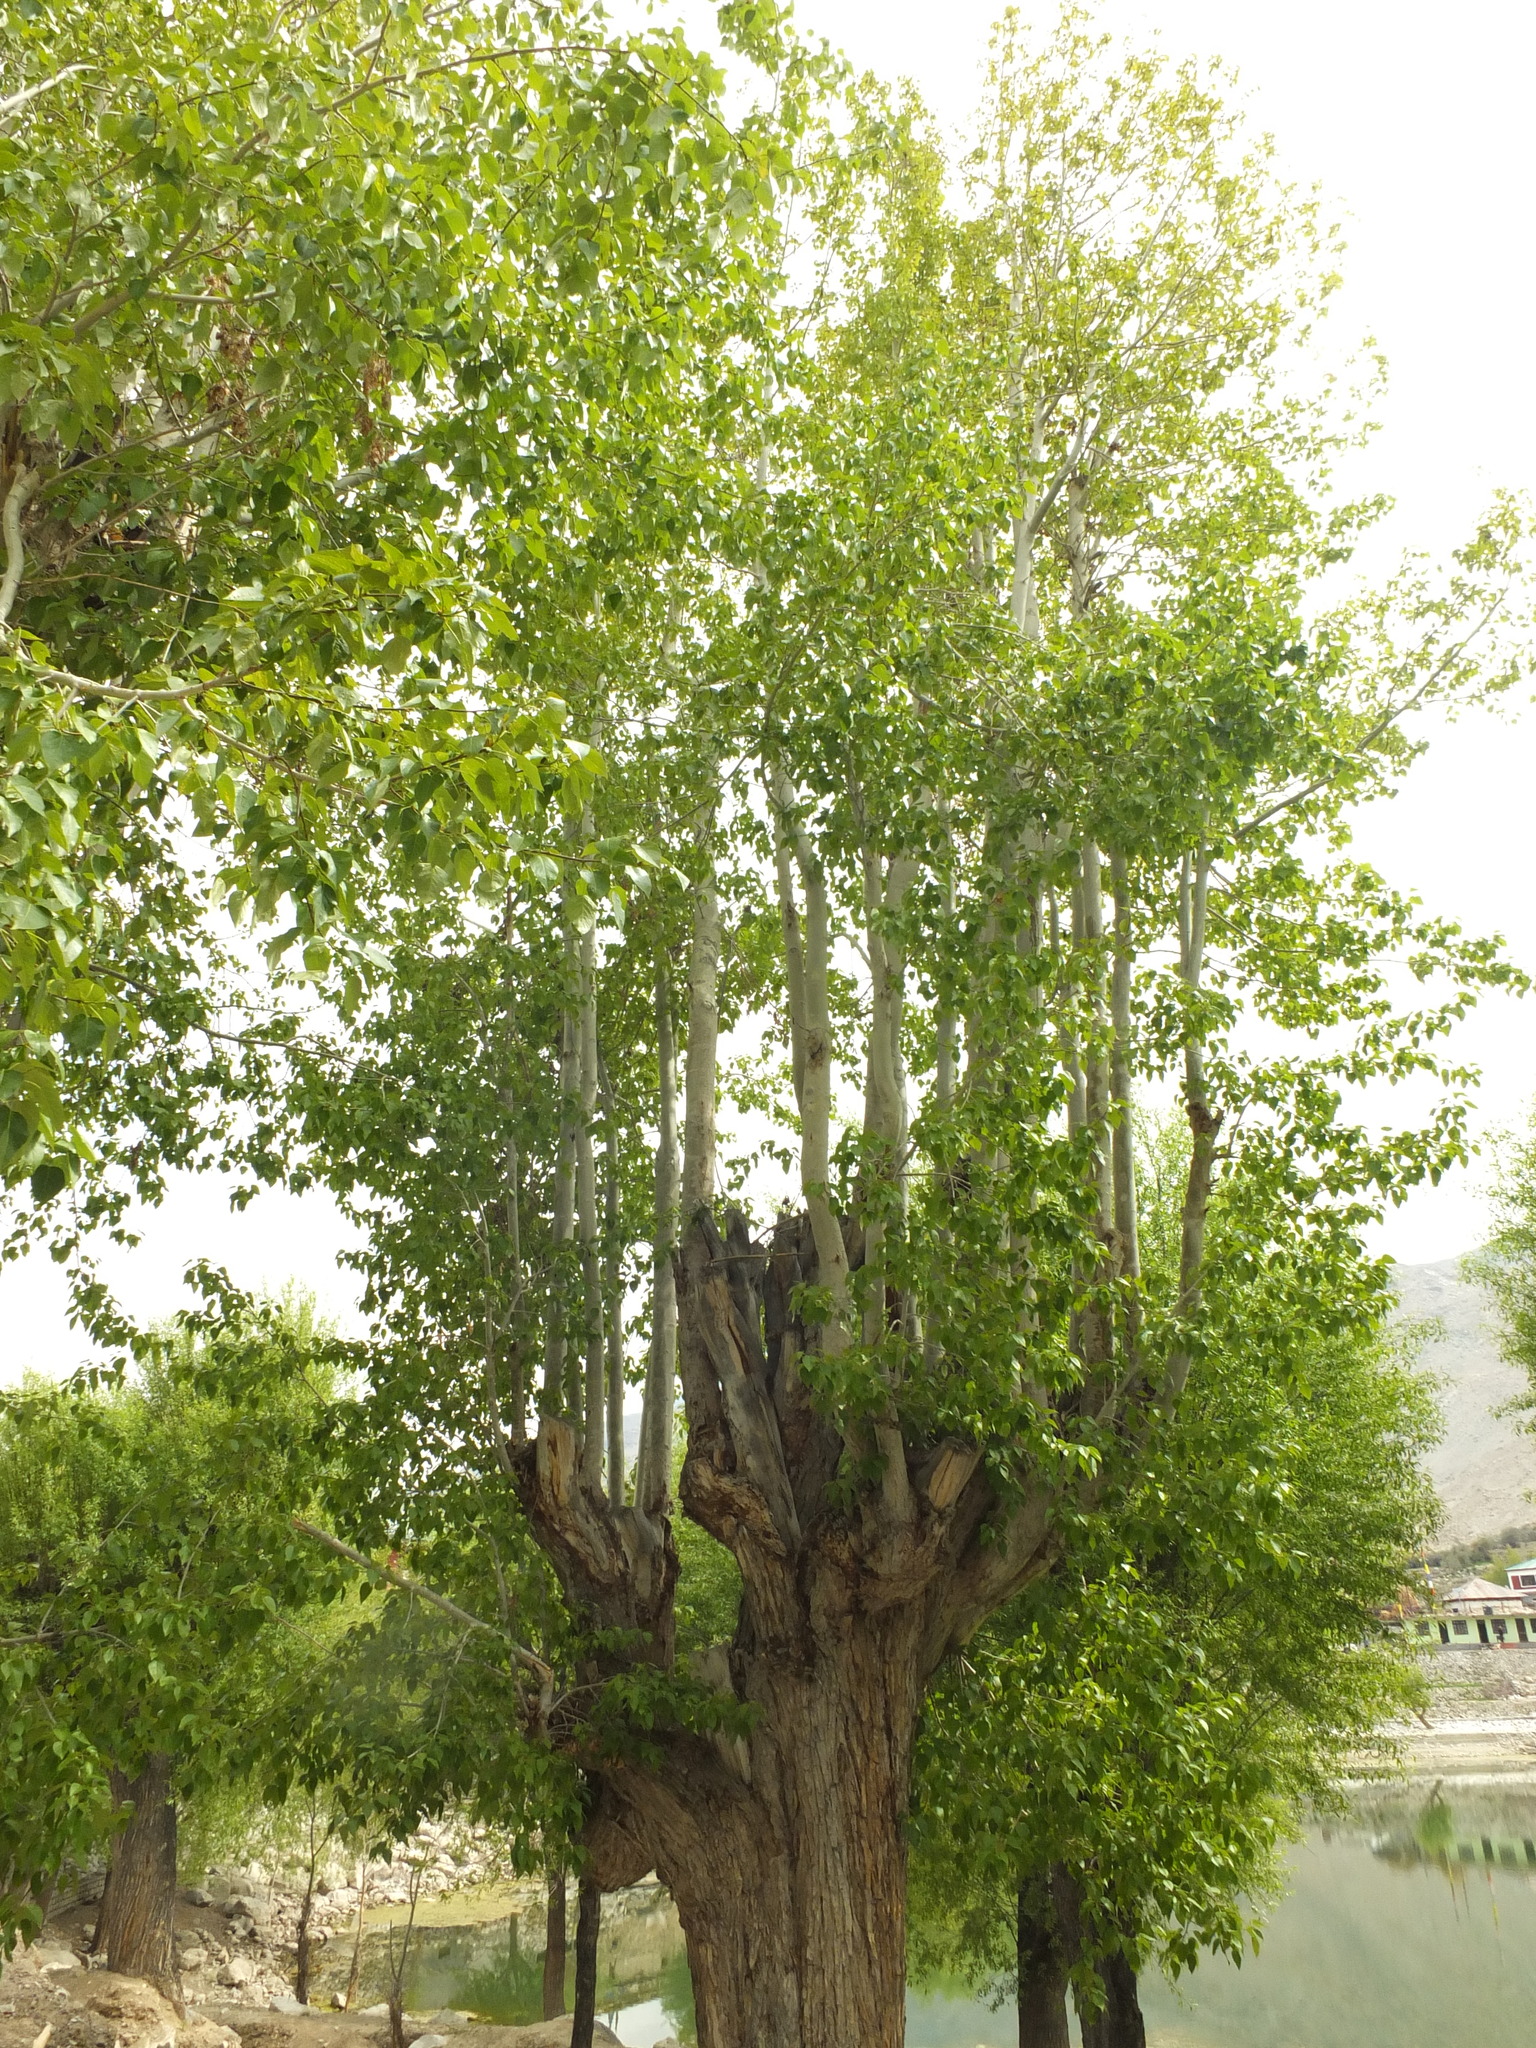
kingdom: Plantae
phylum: Tracheophyta
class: Magnoliopsida
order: Malpighiales
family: Salicaceae
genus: Populus
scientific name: Populus ciliata
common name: Himalayan poplar
